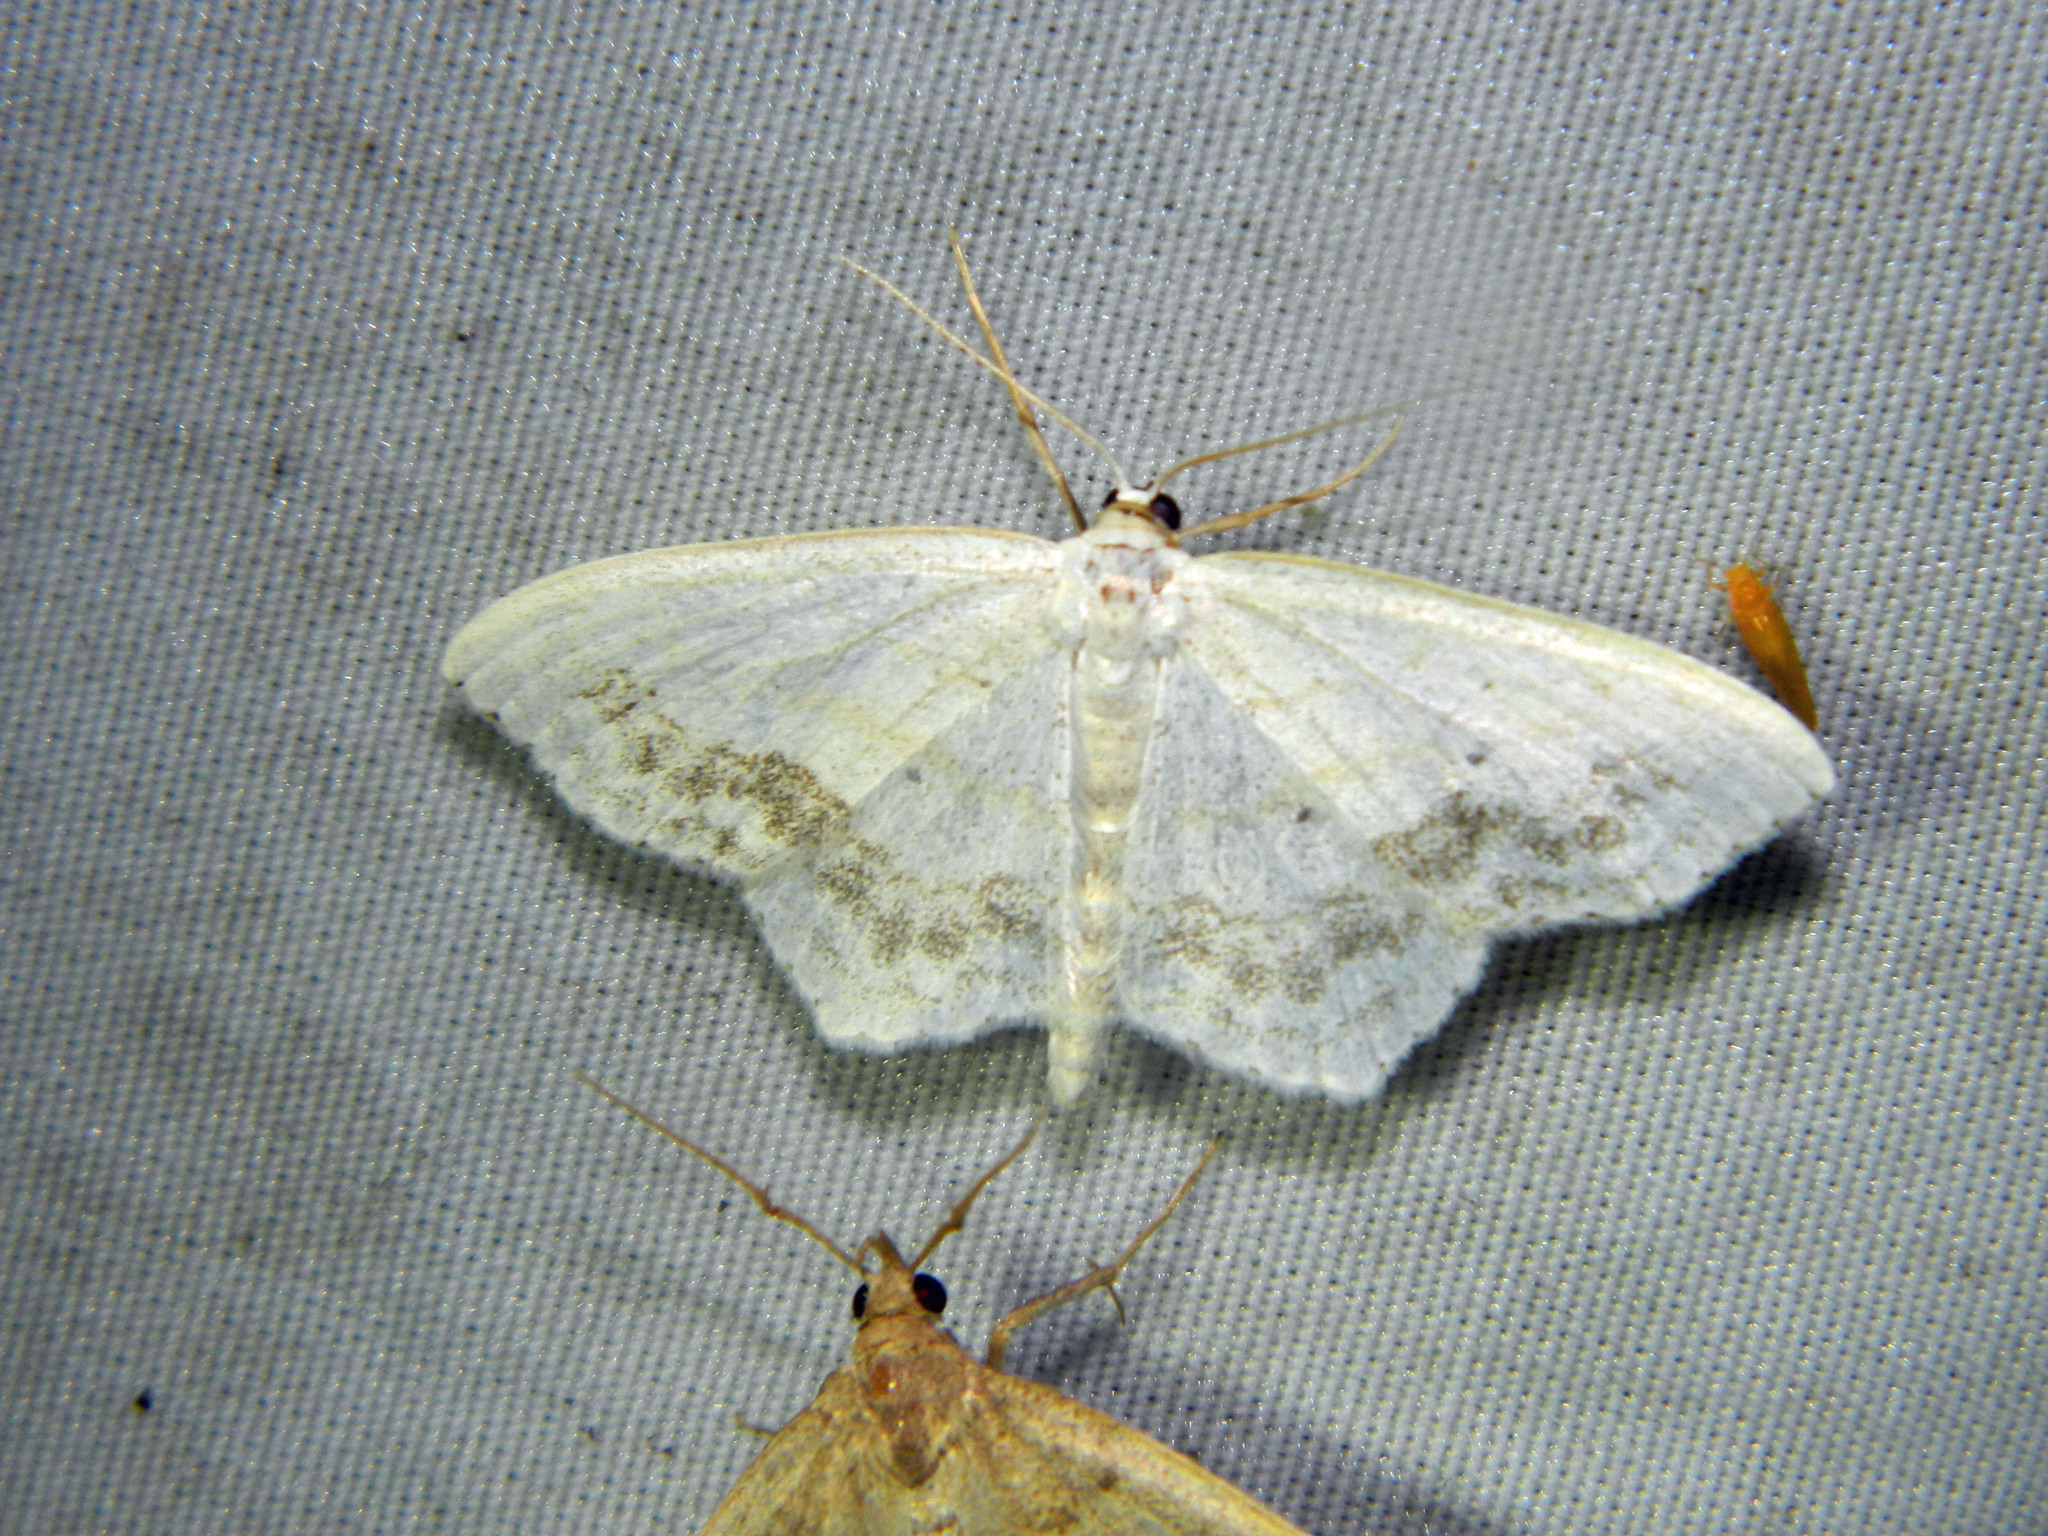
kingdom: Animalia
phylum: Arthropoda
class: Insecta
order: Lepidoptera
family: Geometridae
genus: Scopula
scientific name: Scopula limboundata
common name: Large lace border
